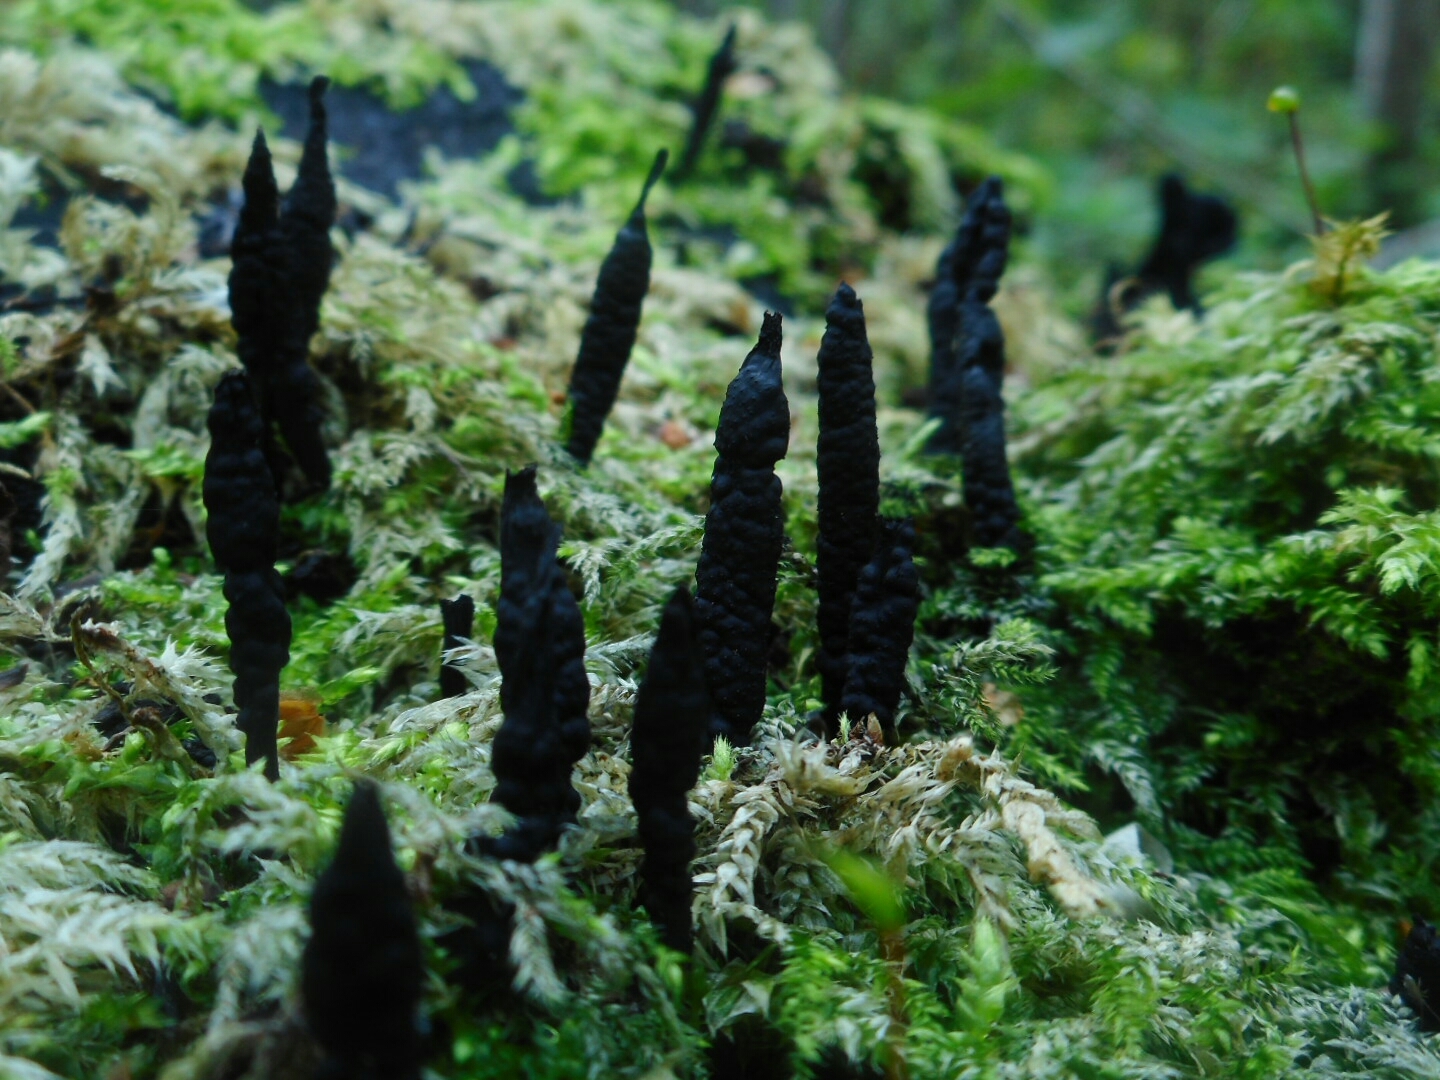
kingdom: Fungi
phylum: Ascomycota
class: Sordariomycetes
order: Xylariales
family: Xylariaceae
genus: Xylaria
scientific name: Xylaria hypoxylon
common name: Candle-snuff fungus
